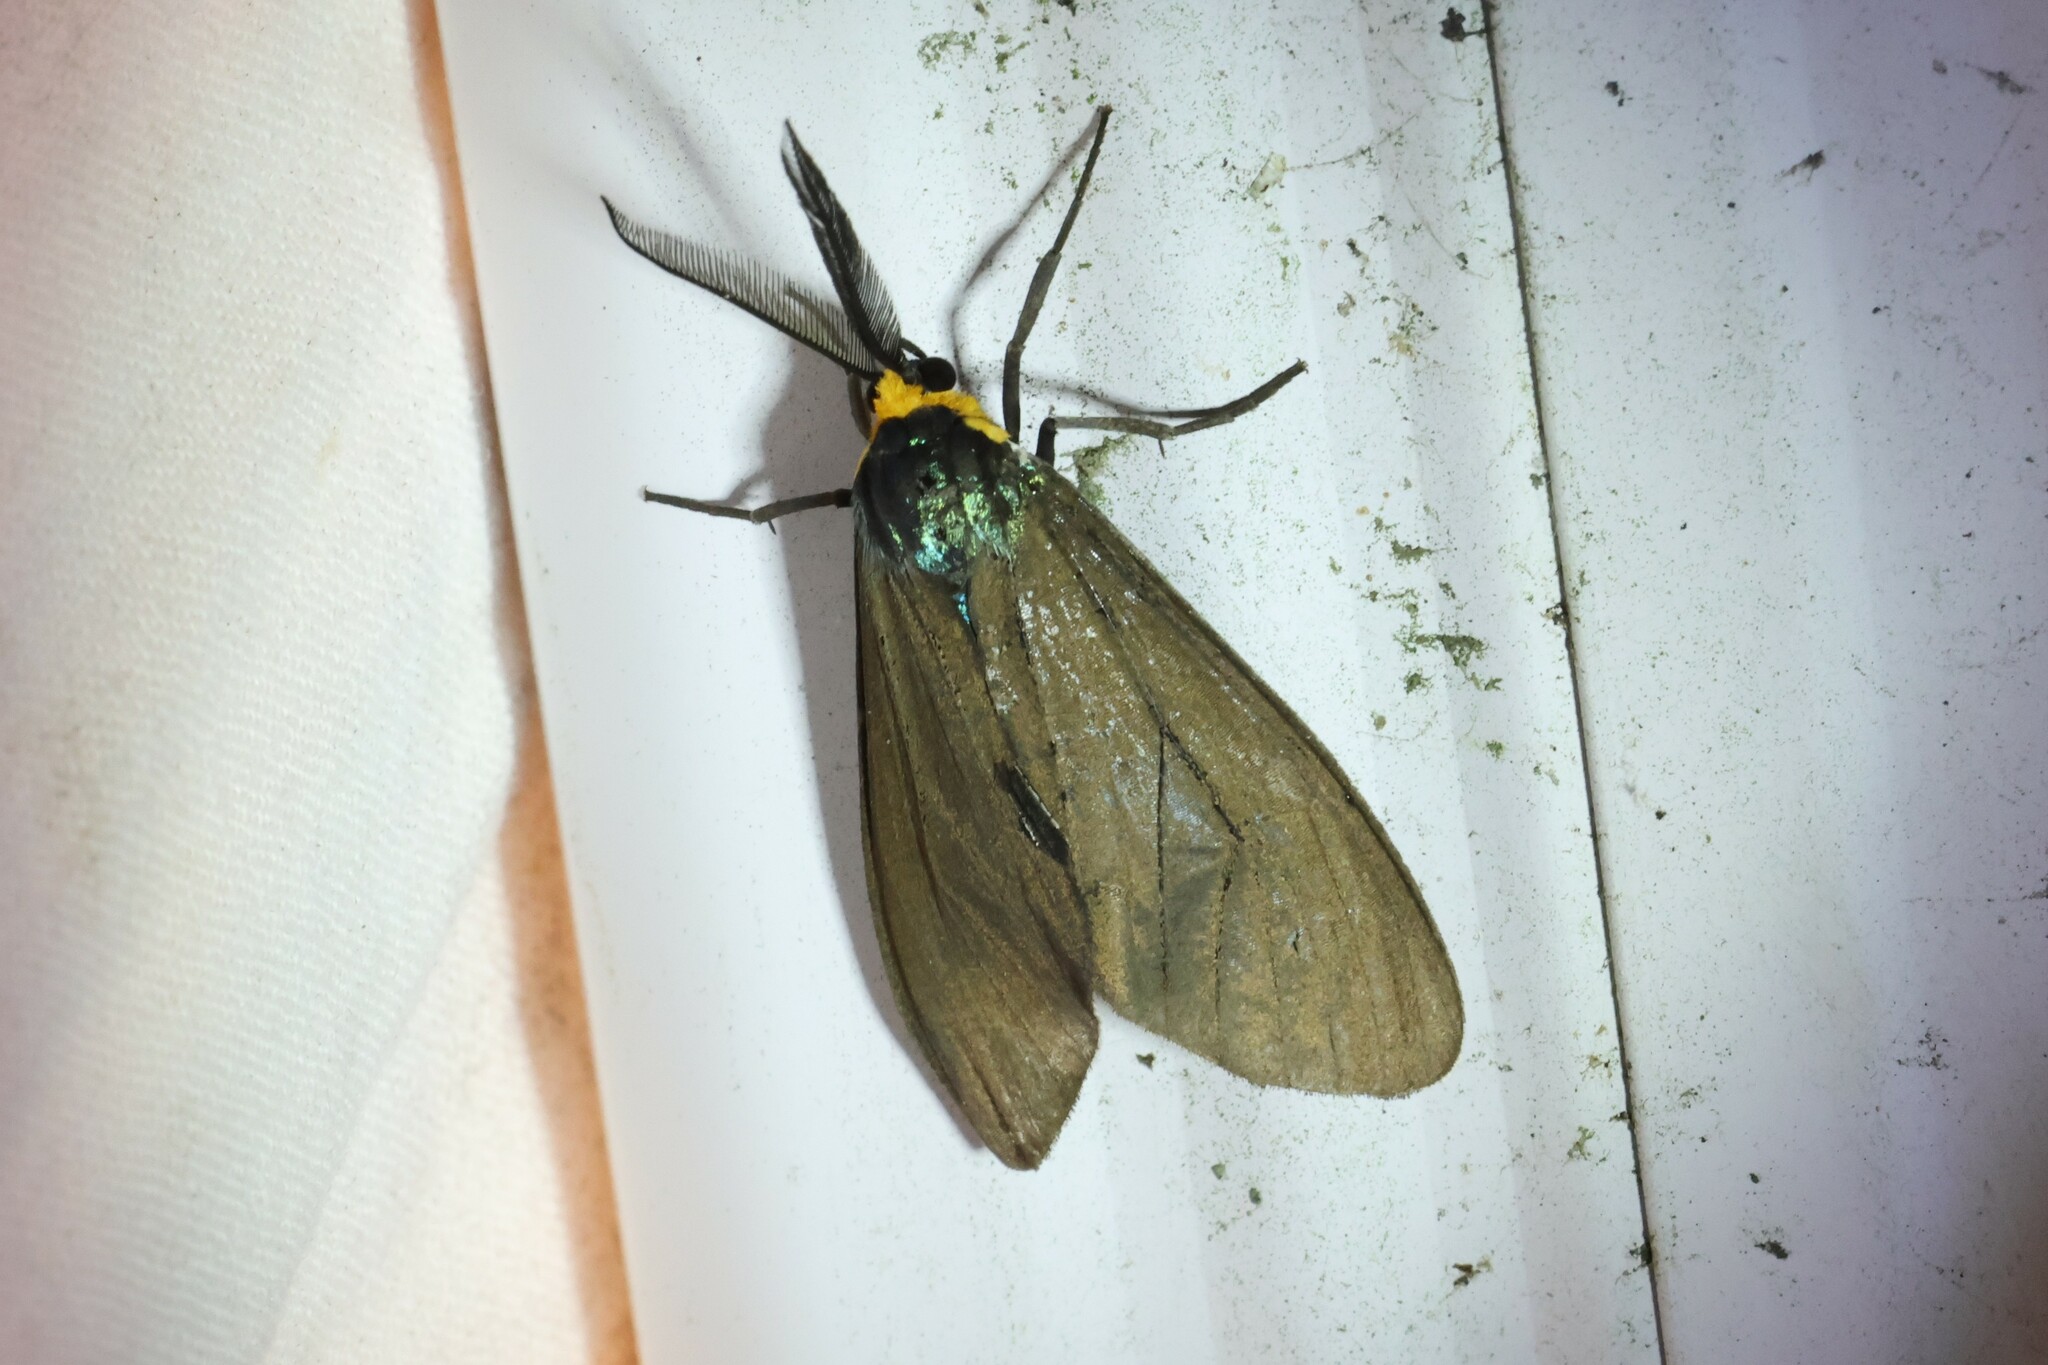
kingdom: Animalia
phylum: Arthropoda
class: Insecta
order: Lepidoptera
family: Erebidae
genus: Ctenucha
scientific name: Ctenucha virginica
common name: Virginia ctenucha moth
